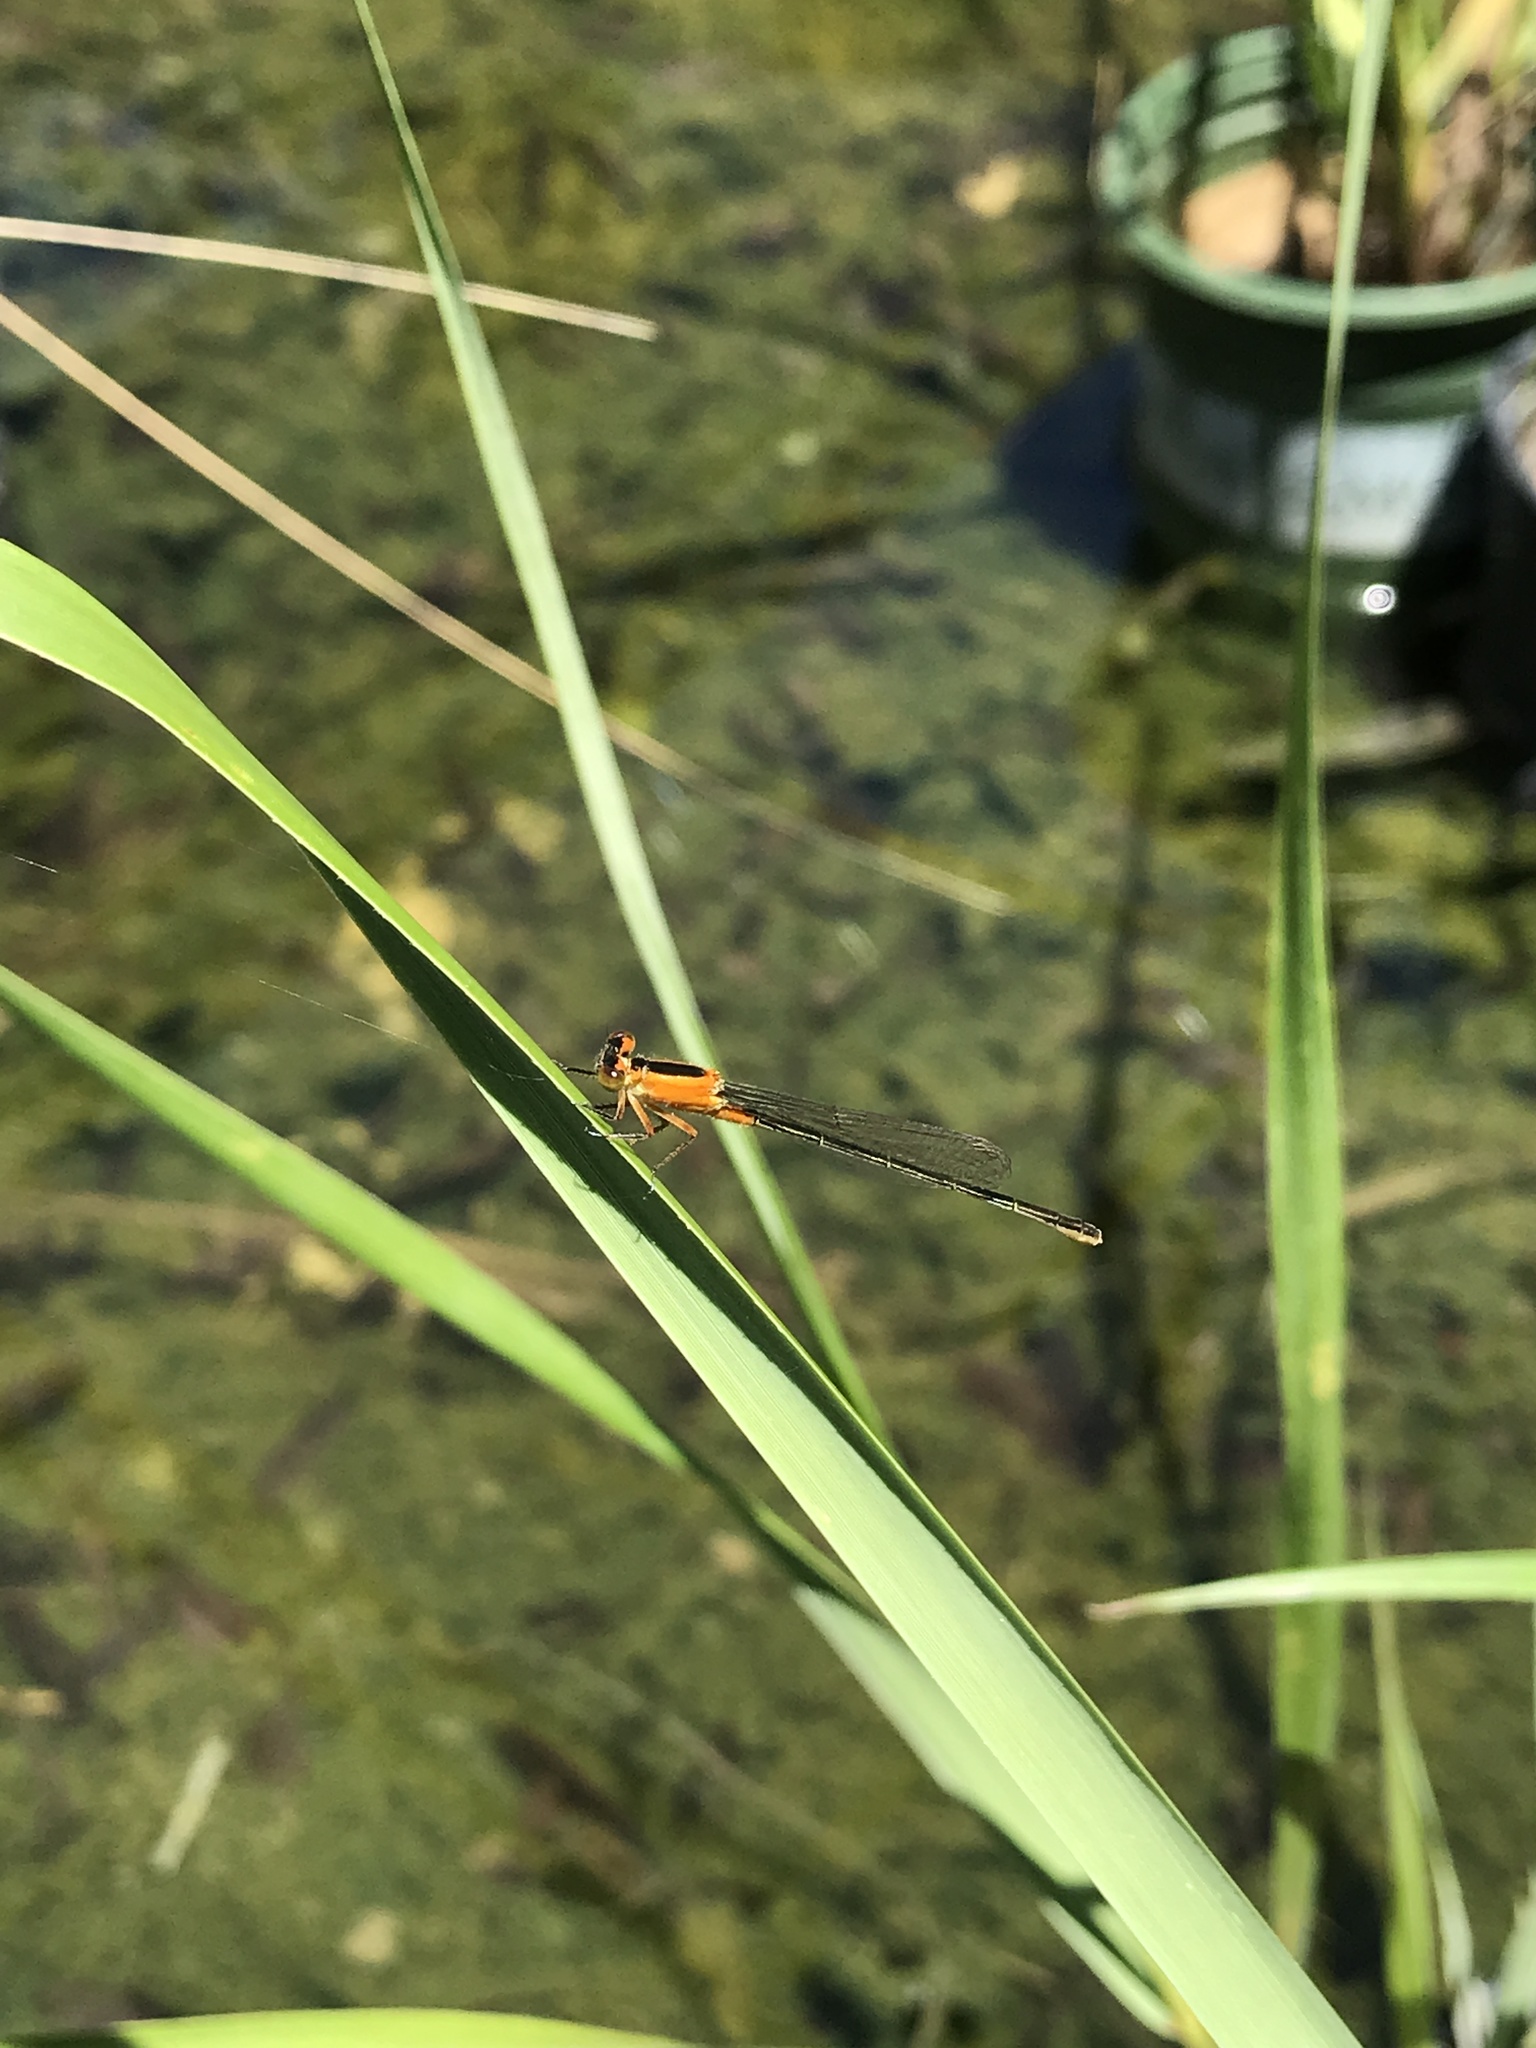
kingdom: Animalia
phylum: Arthropoda
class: Insecta
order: Odonata
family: Coenagrionidae
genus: Ischnura
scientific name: Ischnura ramburii
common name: Rambur's forktail
